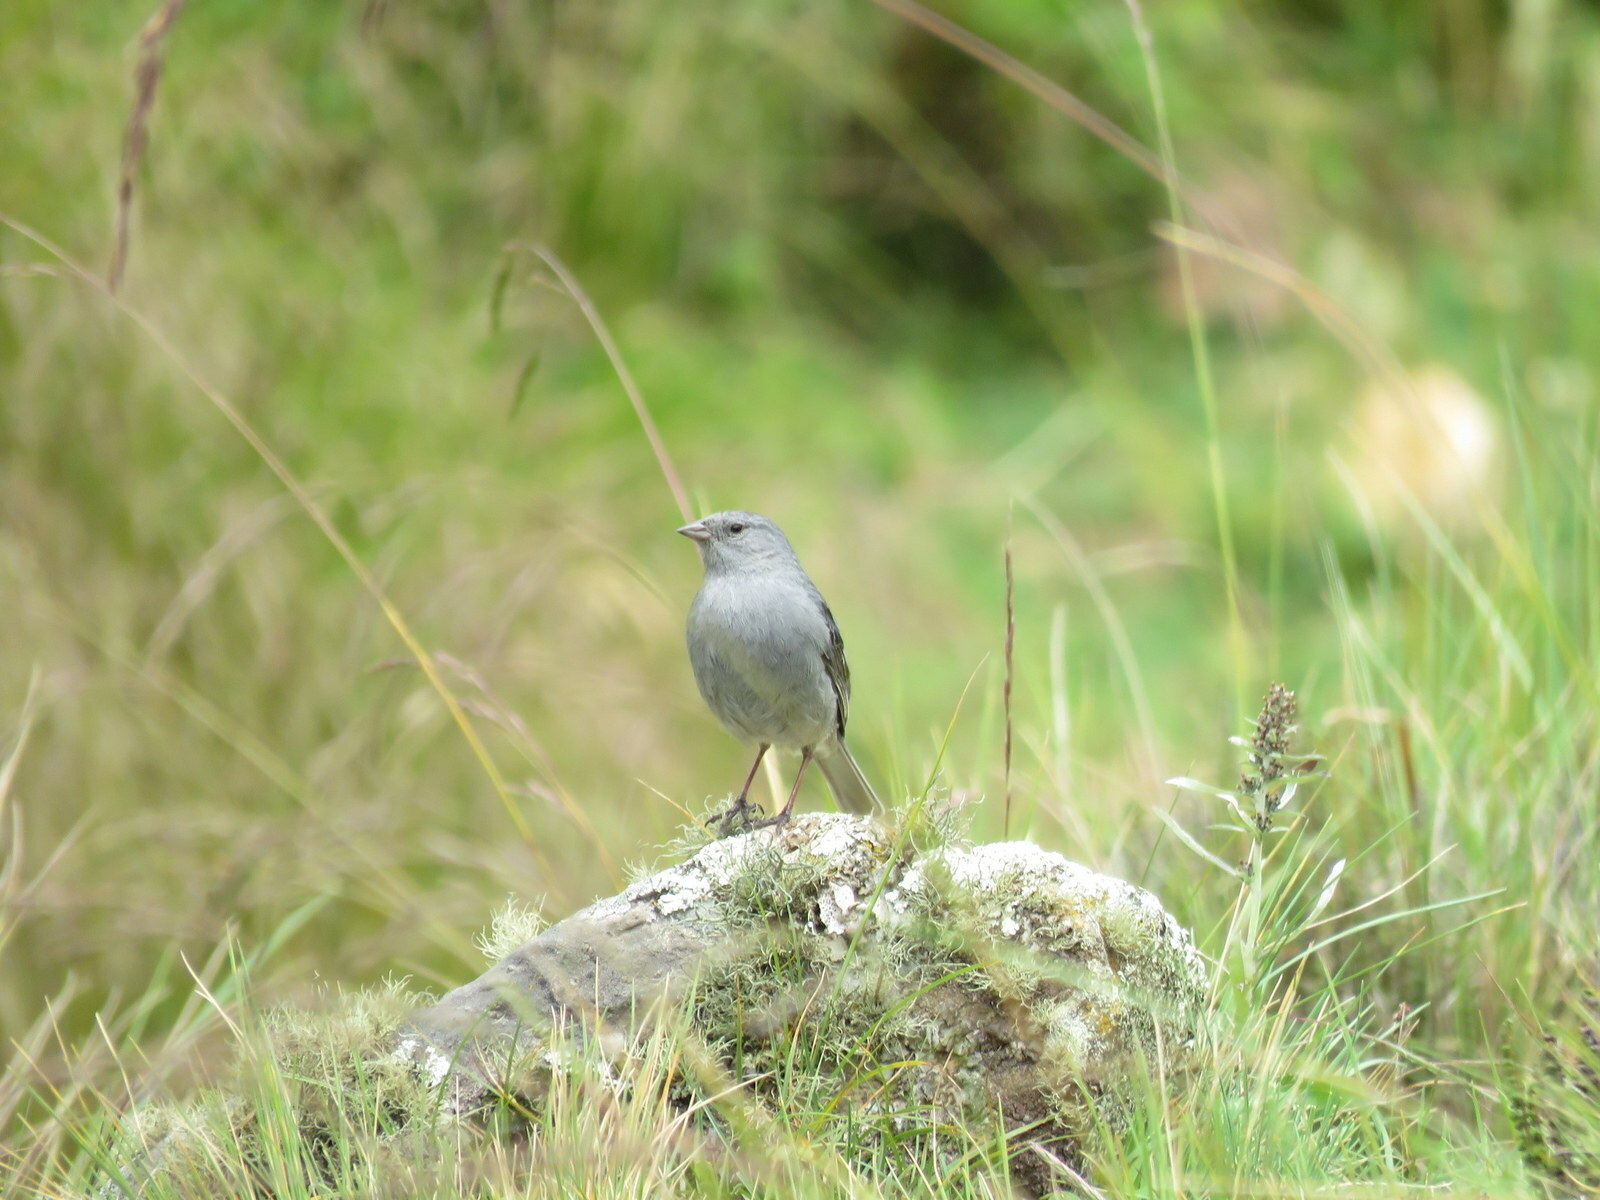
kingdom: Animalia
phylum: Chordata
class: Aves
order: Passeriformes
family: Thraupidae
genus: Geospizopsis
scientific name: Geospizopsis unicolor
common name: Plumbeous sierra-finch
